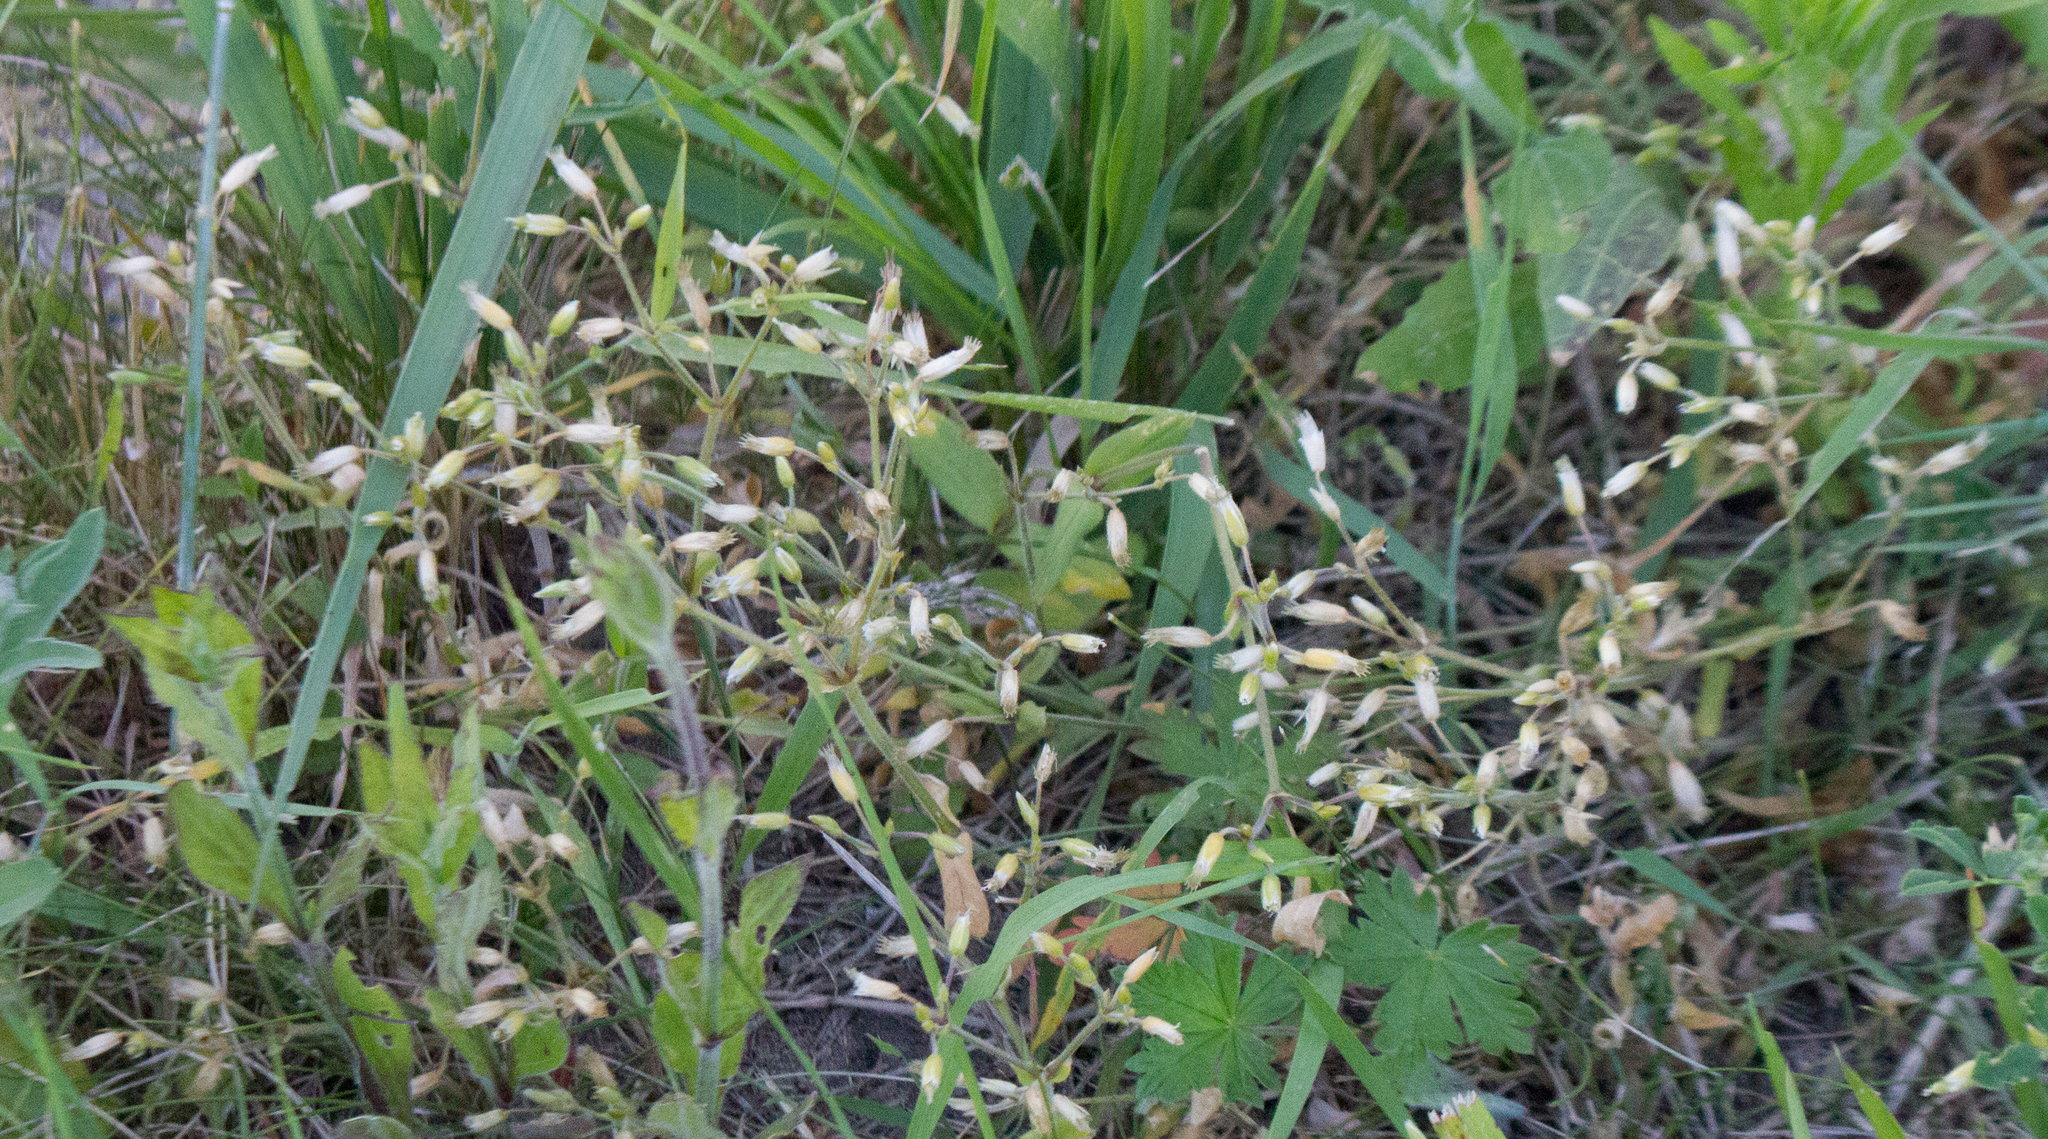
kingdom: Plantae
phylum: Tracheophyta
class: Magnoliopsida
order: Caryophyllales
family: Caryophyllaceae
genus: Cerastium
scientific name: Cerastium holosteoides
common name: Big chickweed
